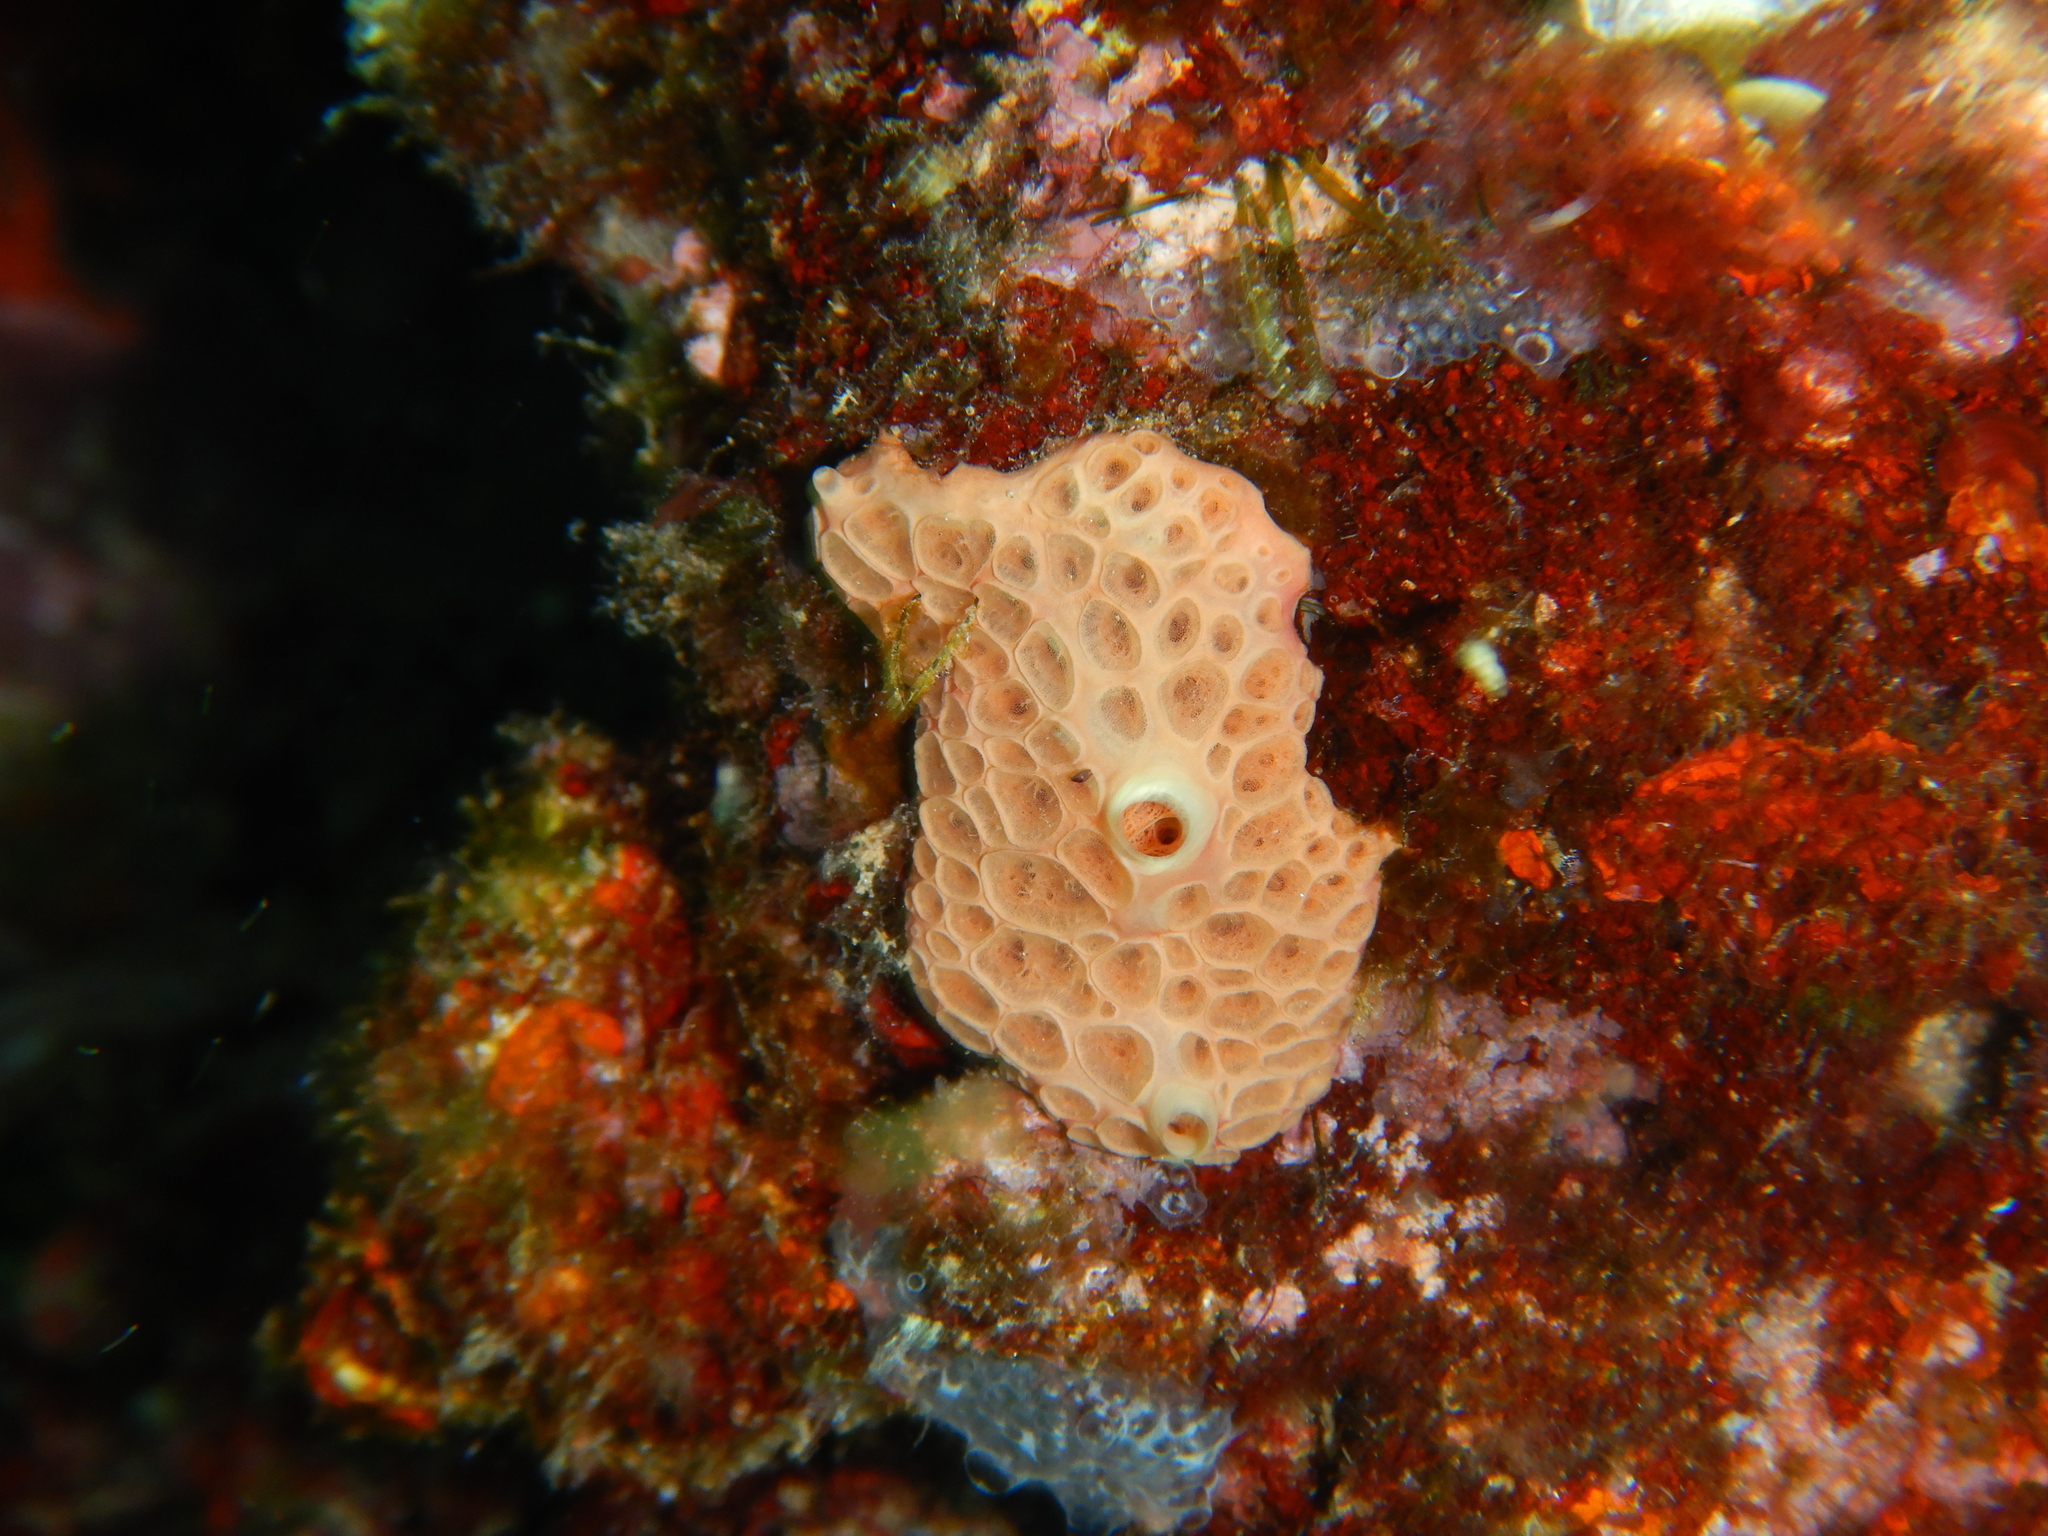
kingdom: Animalia
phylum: Porifera
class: Demospongiae
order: Poecilosclerida
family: Hymedesmiidae
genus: Hemimycale
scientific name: Hemimycale columella
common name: Crater sponge
